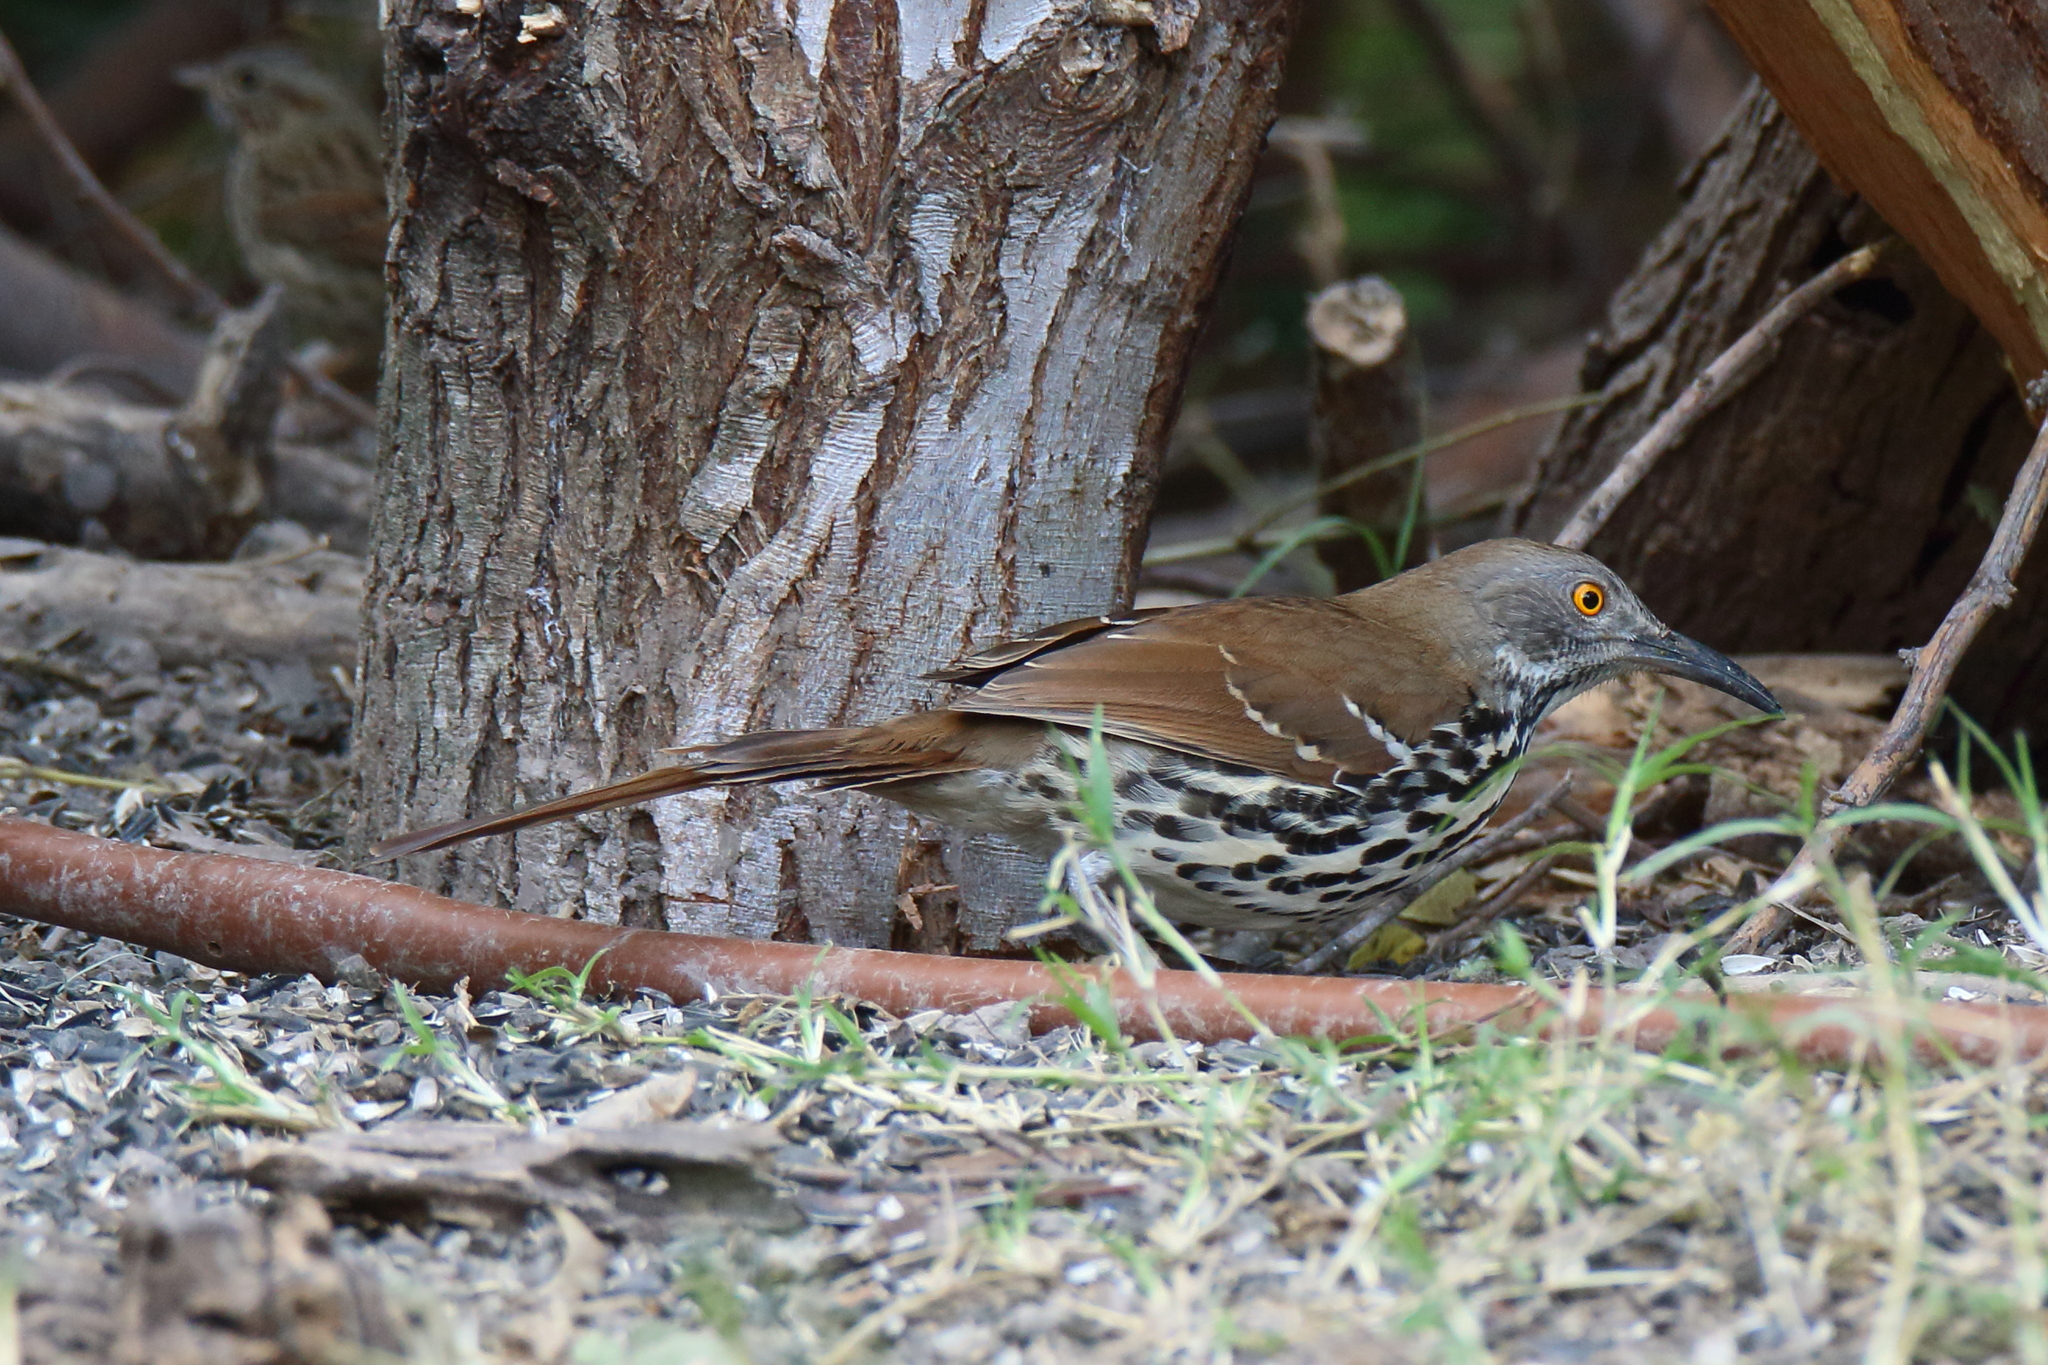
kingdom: Animalia
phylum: Chordata
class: Aves
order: Passeriformes
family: Mimidae
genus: Toxostoma
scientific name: Toxostoma longirostre
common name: Long-billed thrasher
